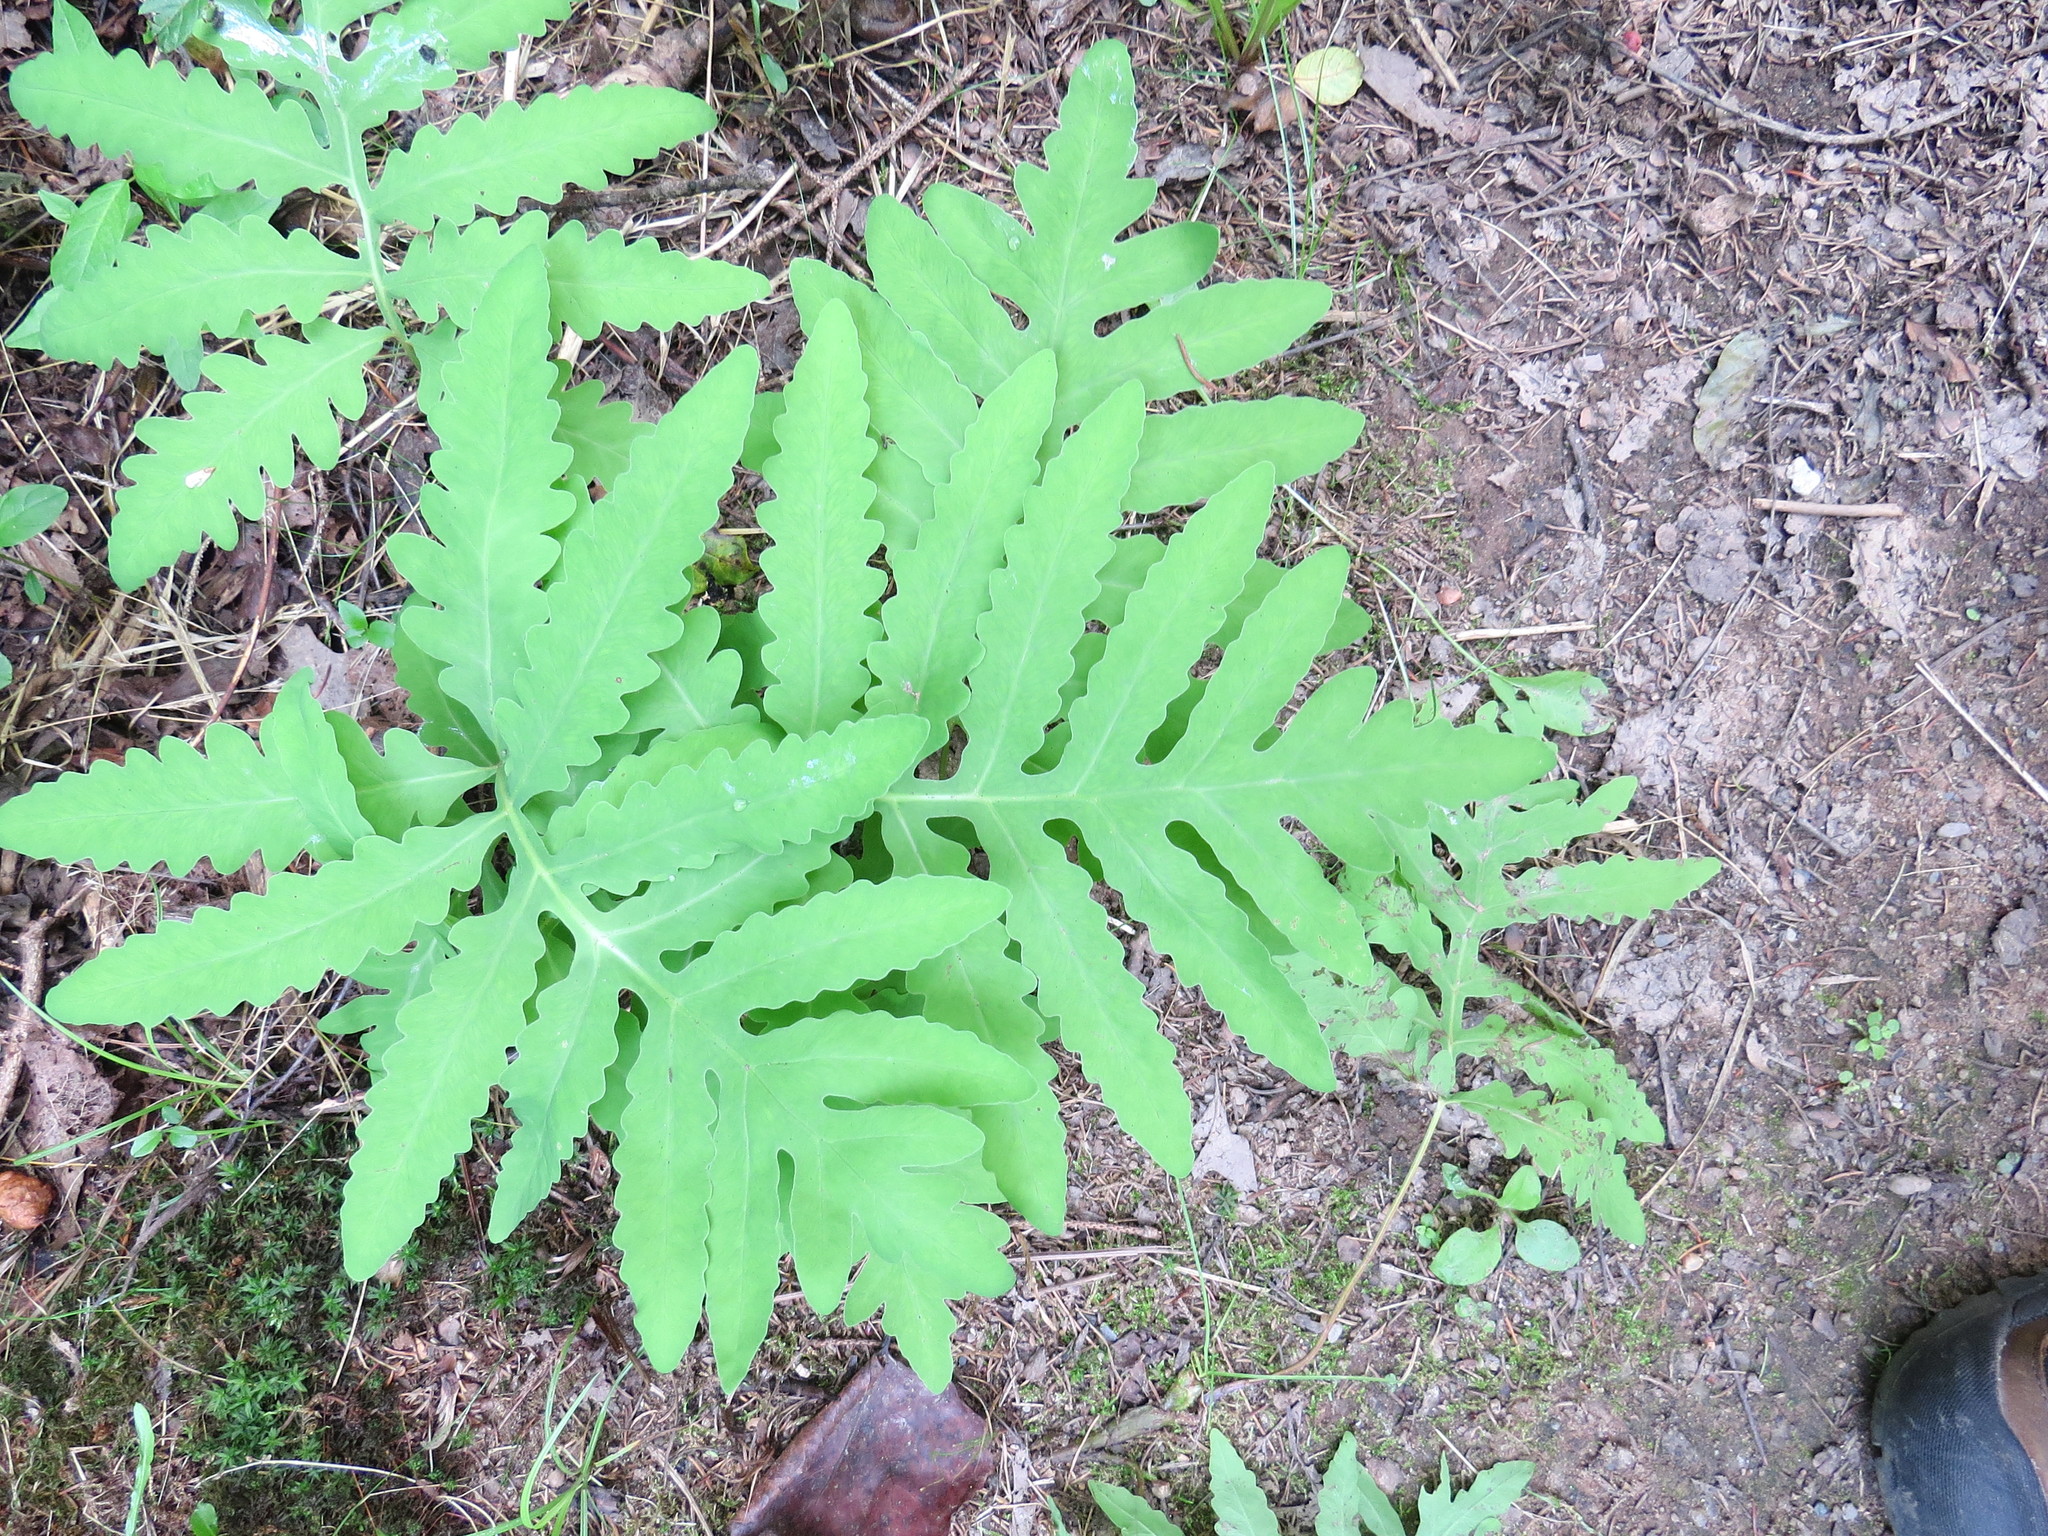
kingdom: Plantae
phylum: Tracheophyta
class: Polypodiopsida
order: Polypodiales
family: Onocleaceae
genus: Onoclea
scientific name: Onoclea sensibilis
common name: Sensitive fern
